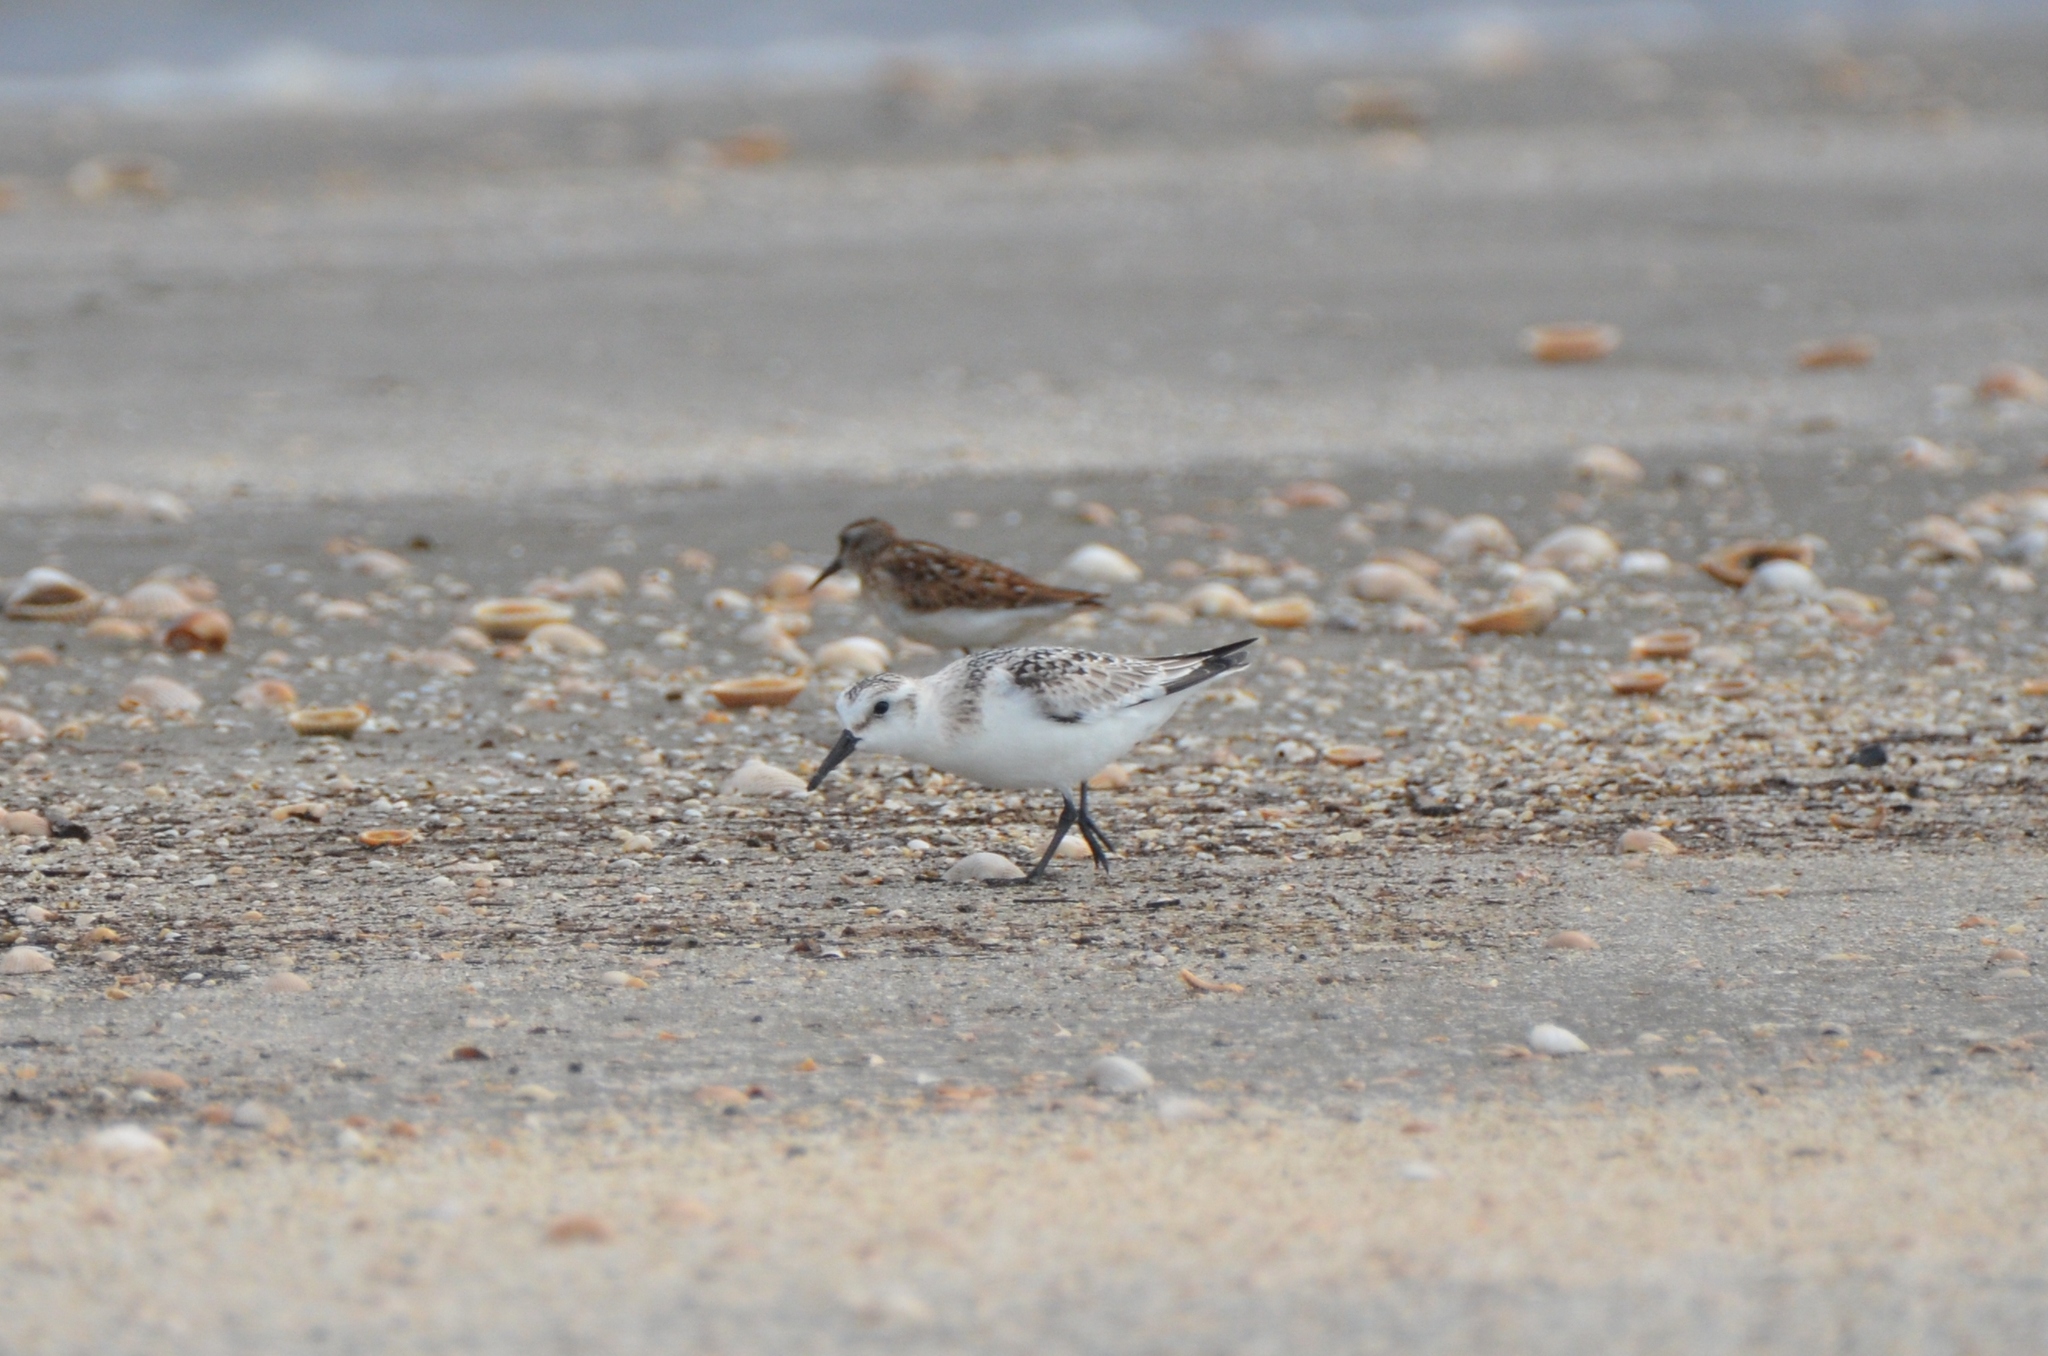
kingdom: Animalia
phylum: Chordata
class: Aves
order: Charadriiformes
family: Scolopacidae
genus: Calidris
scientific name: Calidris alba
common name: Sanderling
